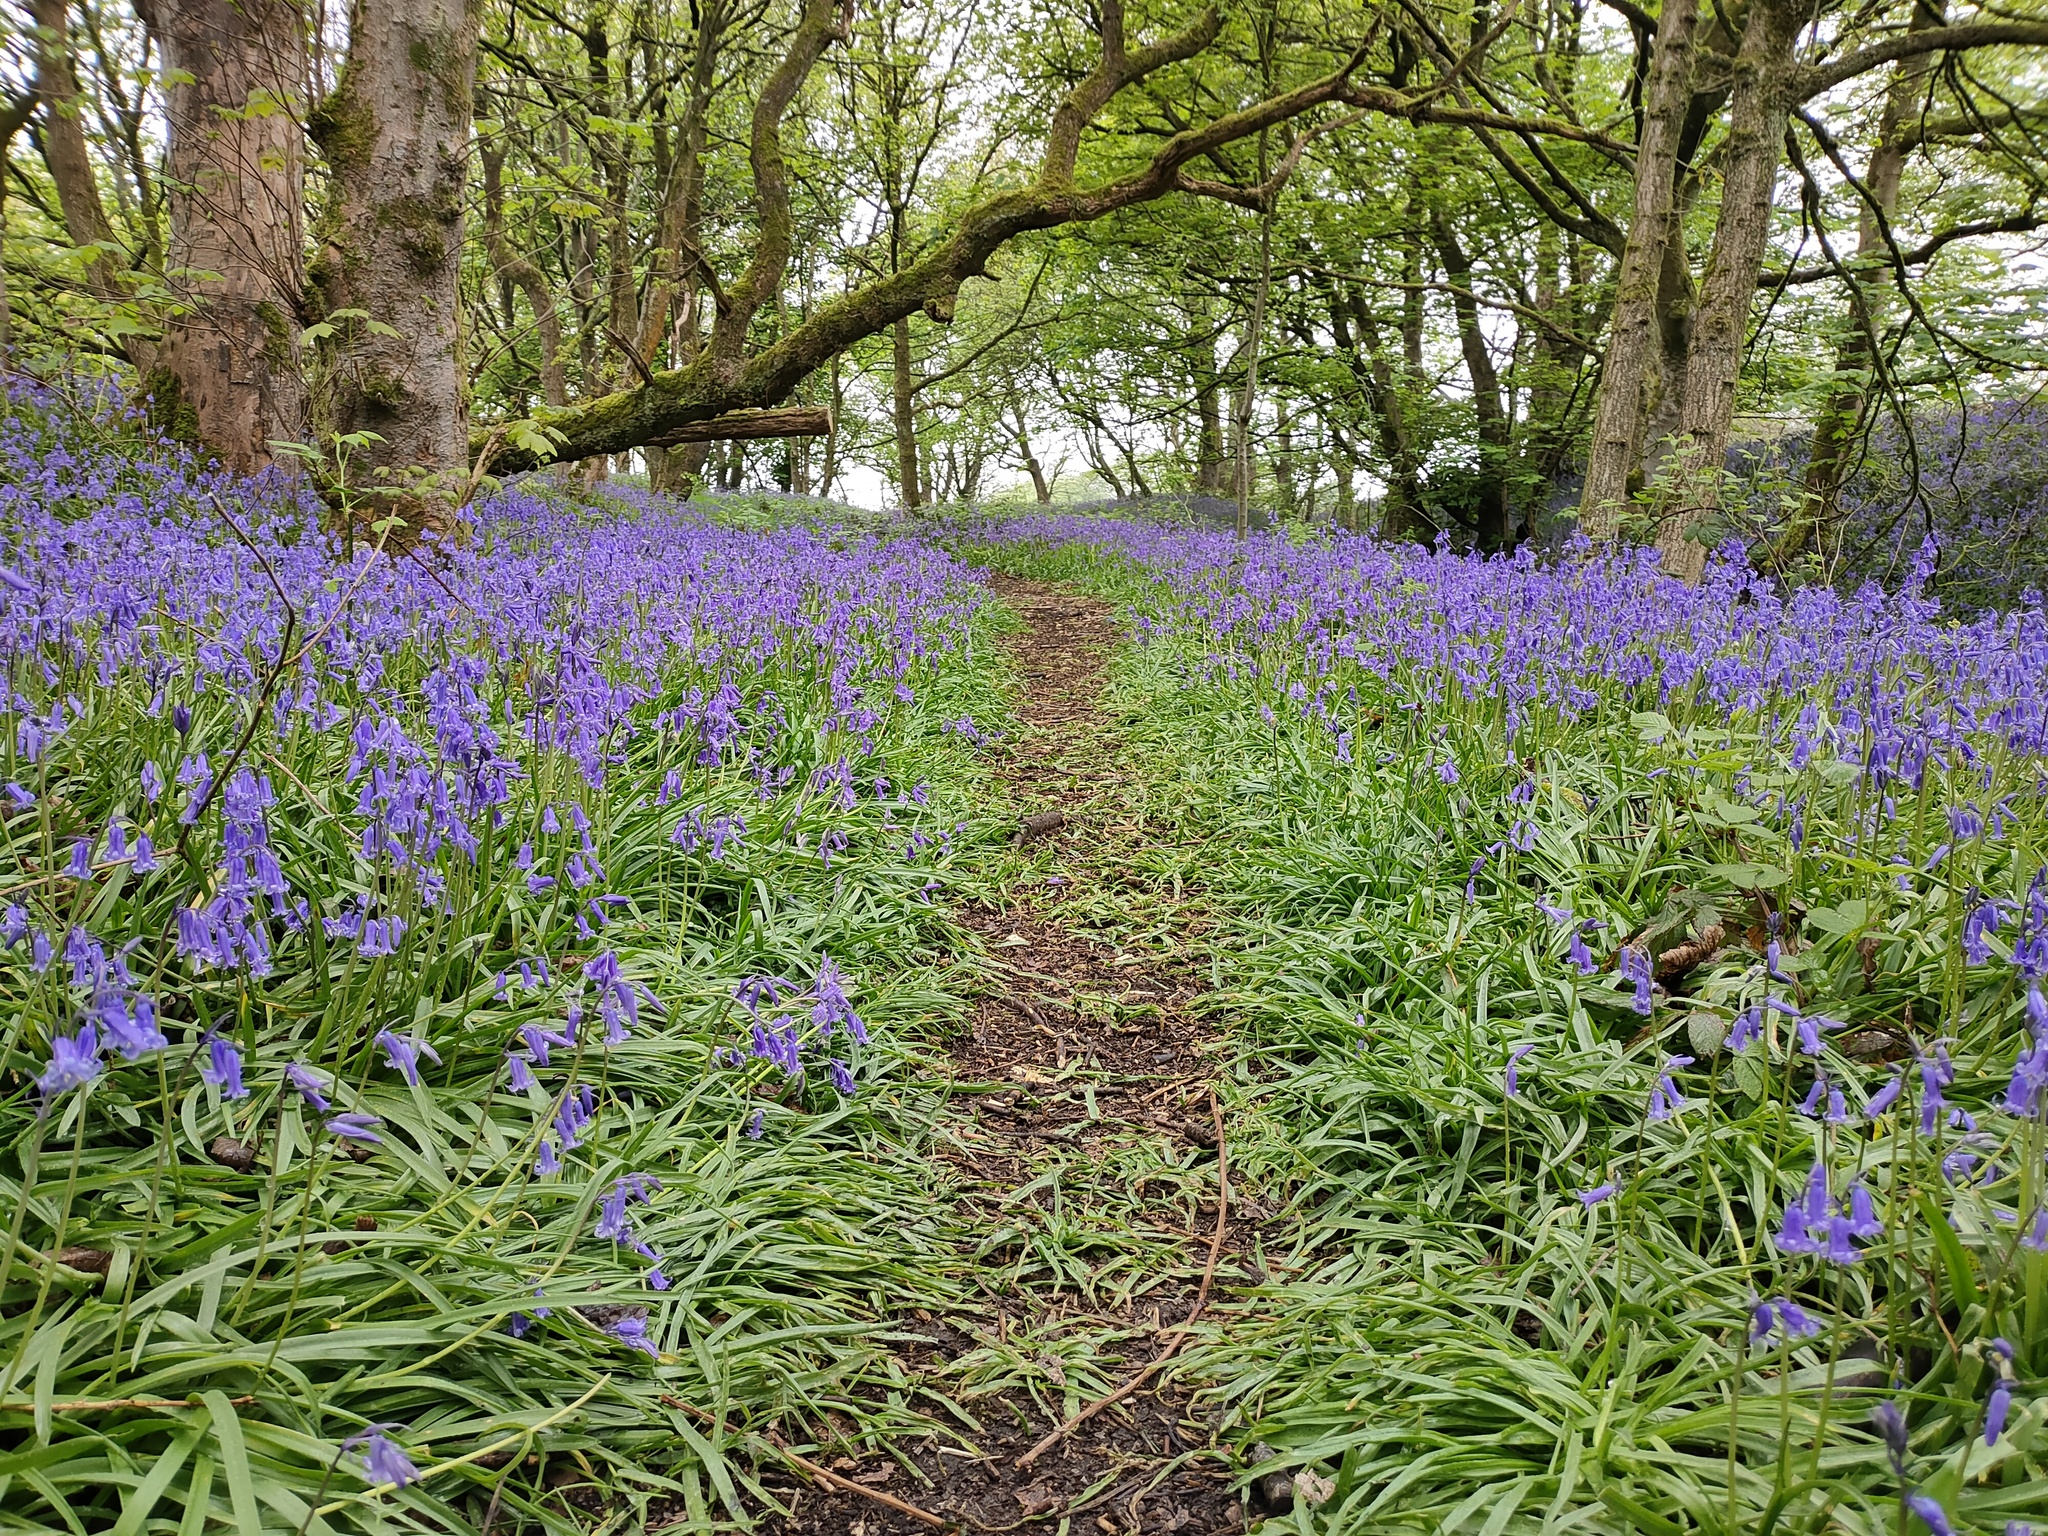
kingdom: Plantae
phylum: Tracheophyta
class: Liliopsida
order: Asparagales
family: Asparagaceae
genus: Hyacinthoides
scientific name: Hyacinthoides non-scripta
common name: Bluebell
